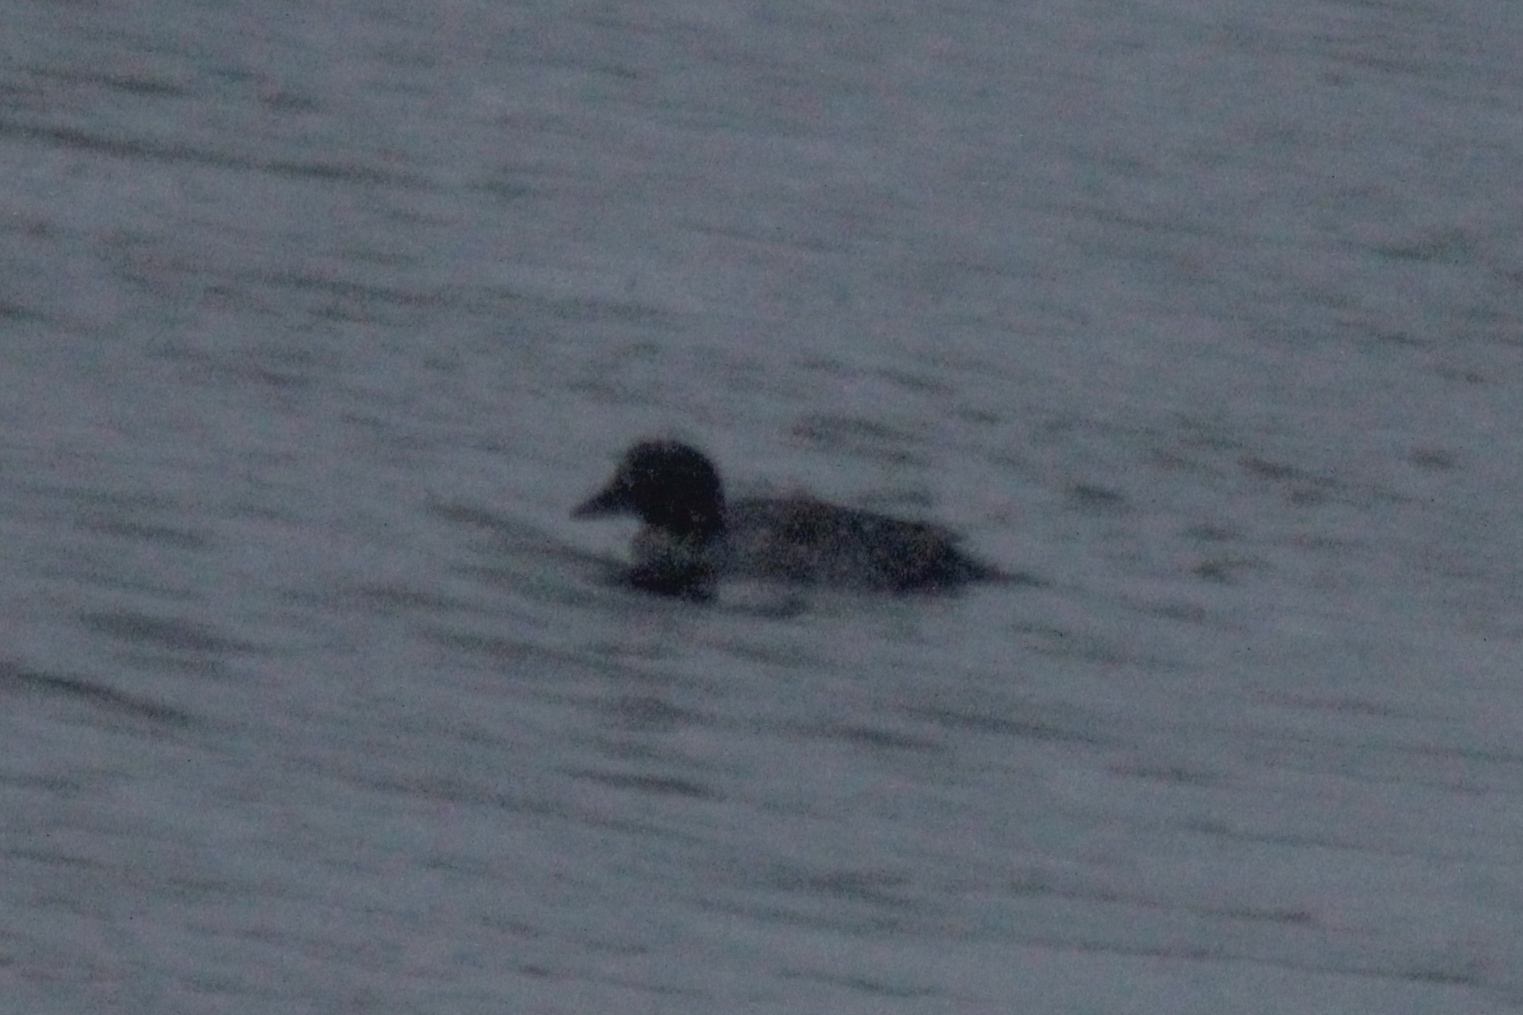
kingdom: Animalia
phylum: Chordata
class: Aves
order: Anseriformes
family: Anatidae
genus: Bucephala
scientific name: Bucephala clangula
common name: Common goldeneye
